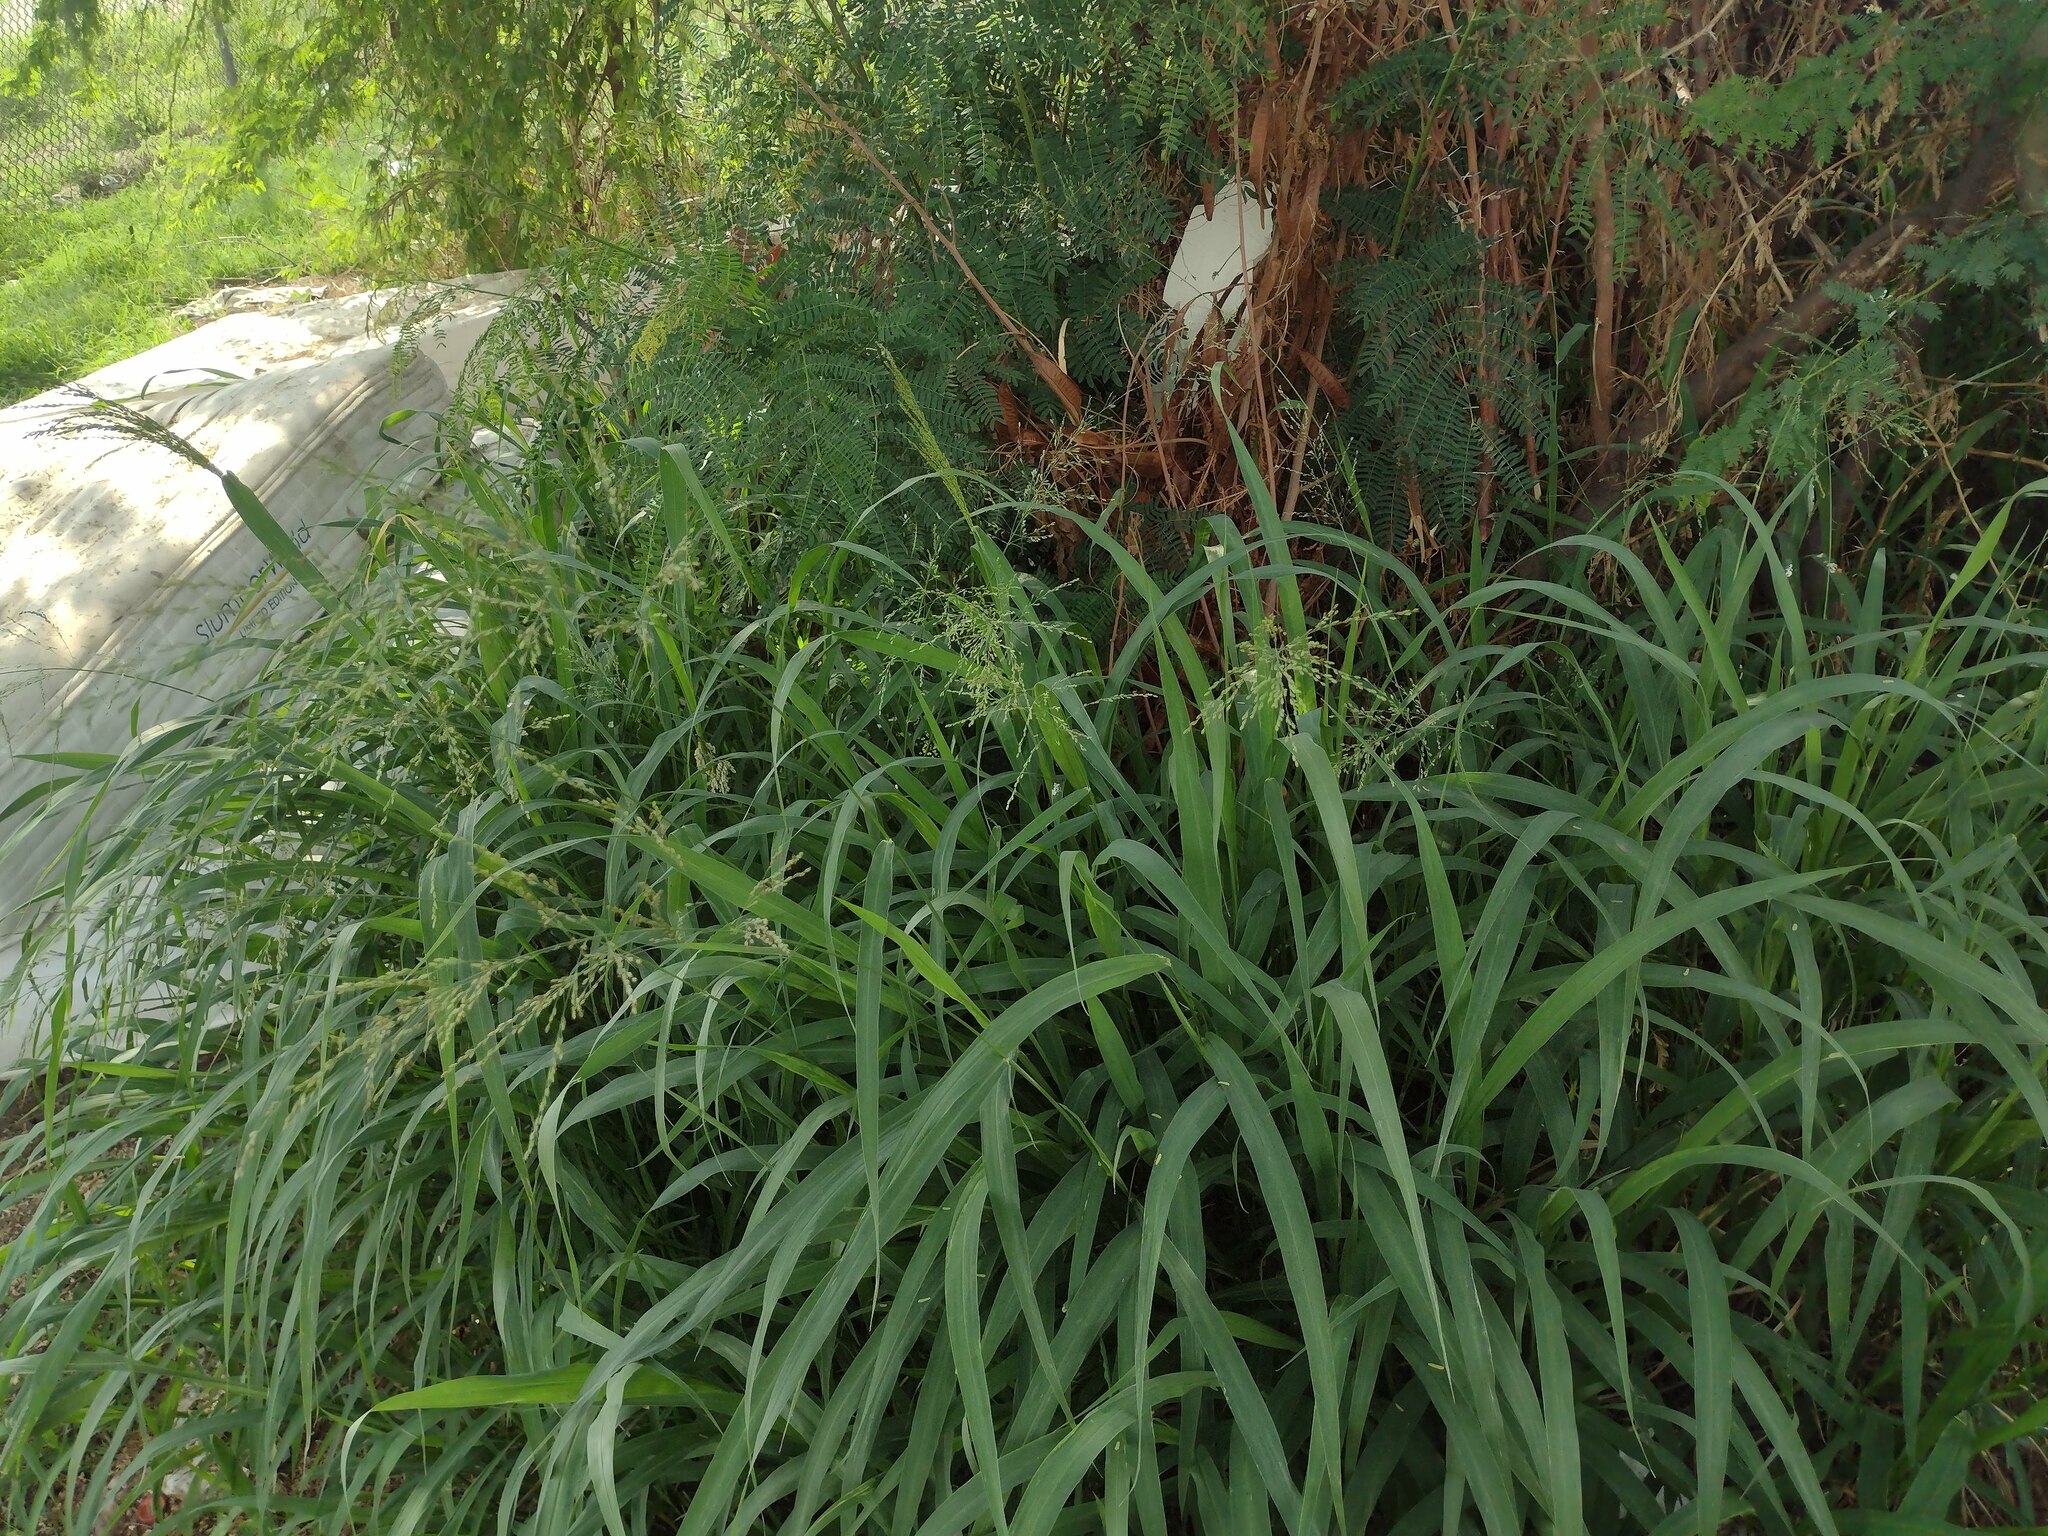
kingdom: Plantae
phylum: Tracheophyta
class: Liliopsida
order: Poales
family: Poaceae
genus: Megathyrsus
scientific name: Megathyrsus maximus
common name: Guineagrass
